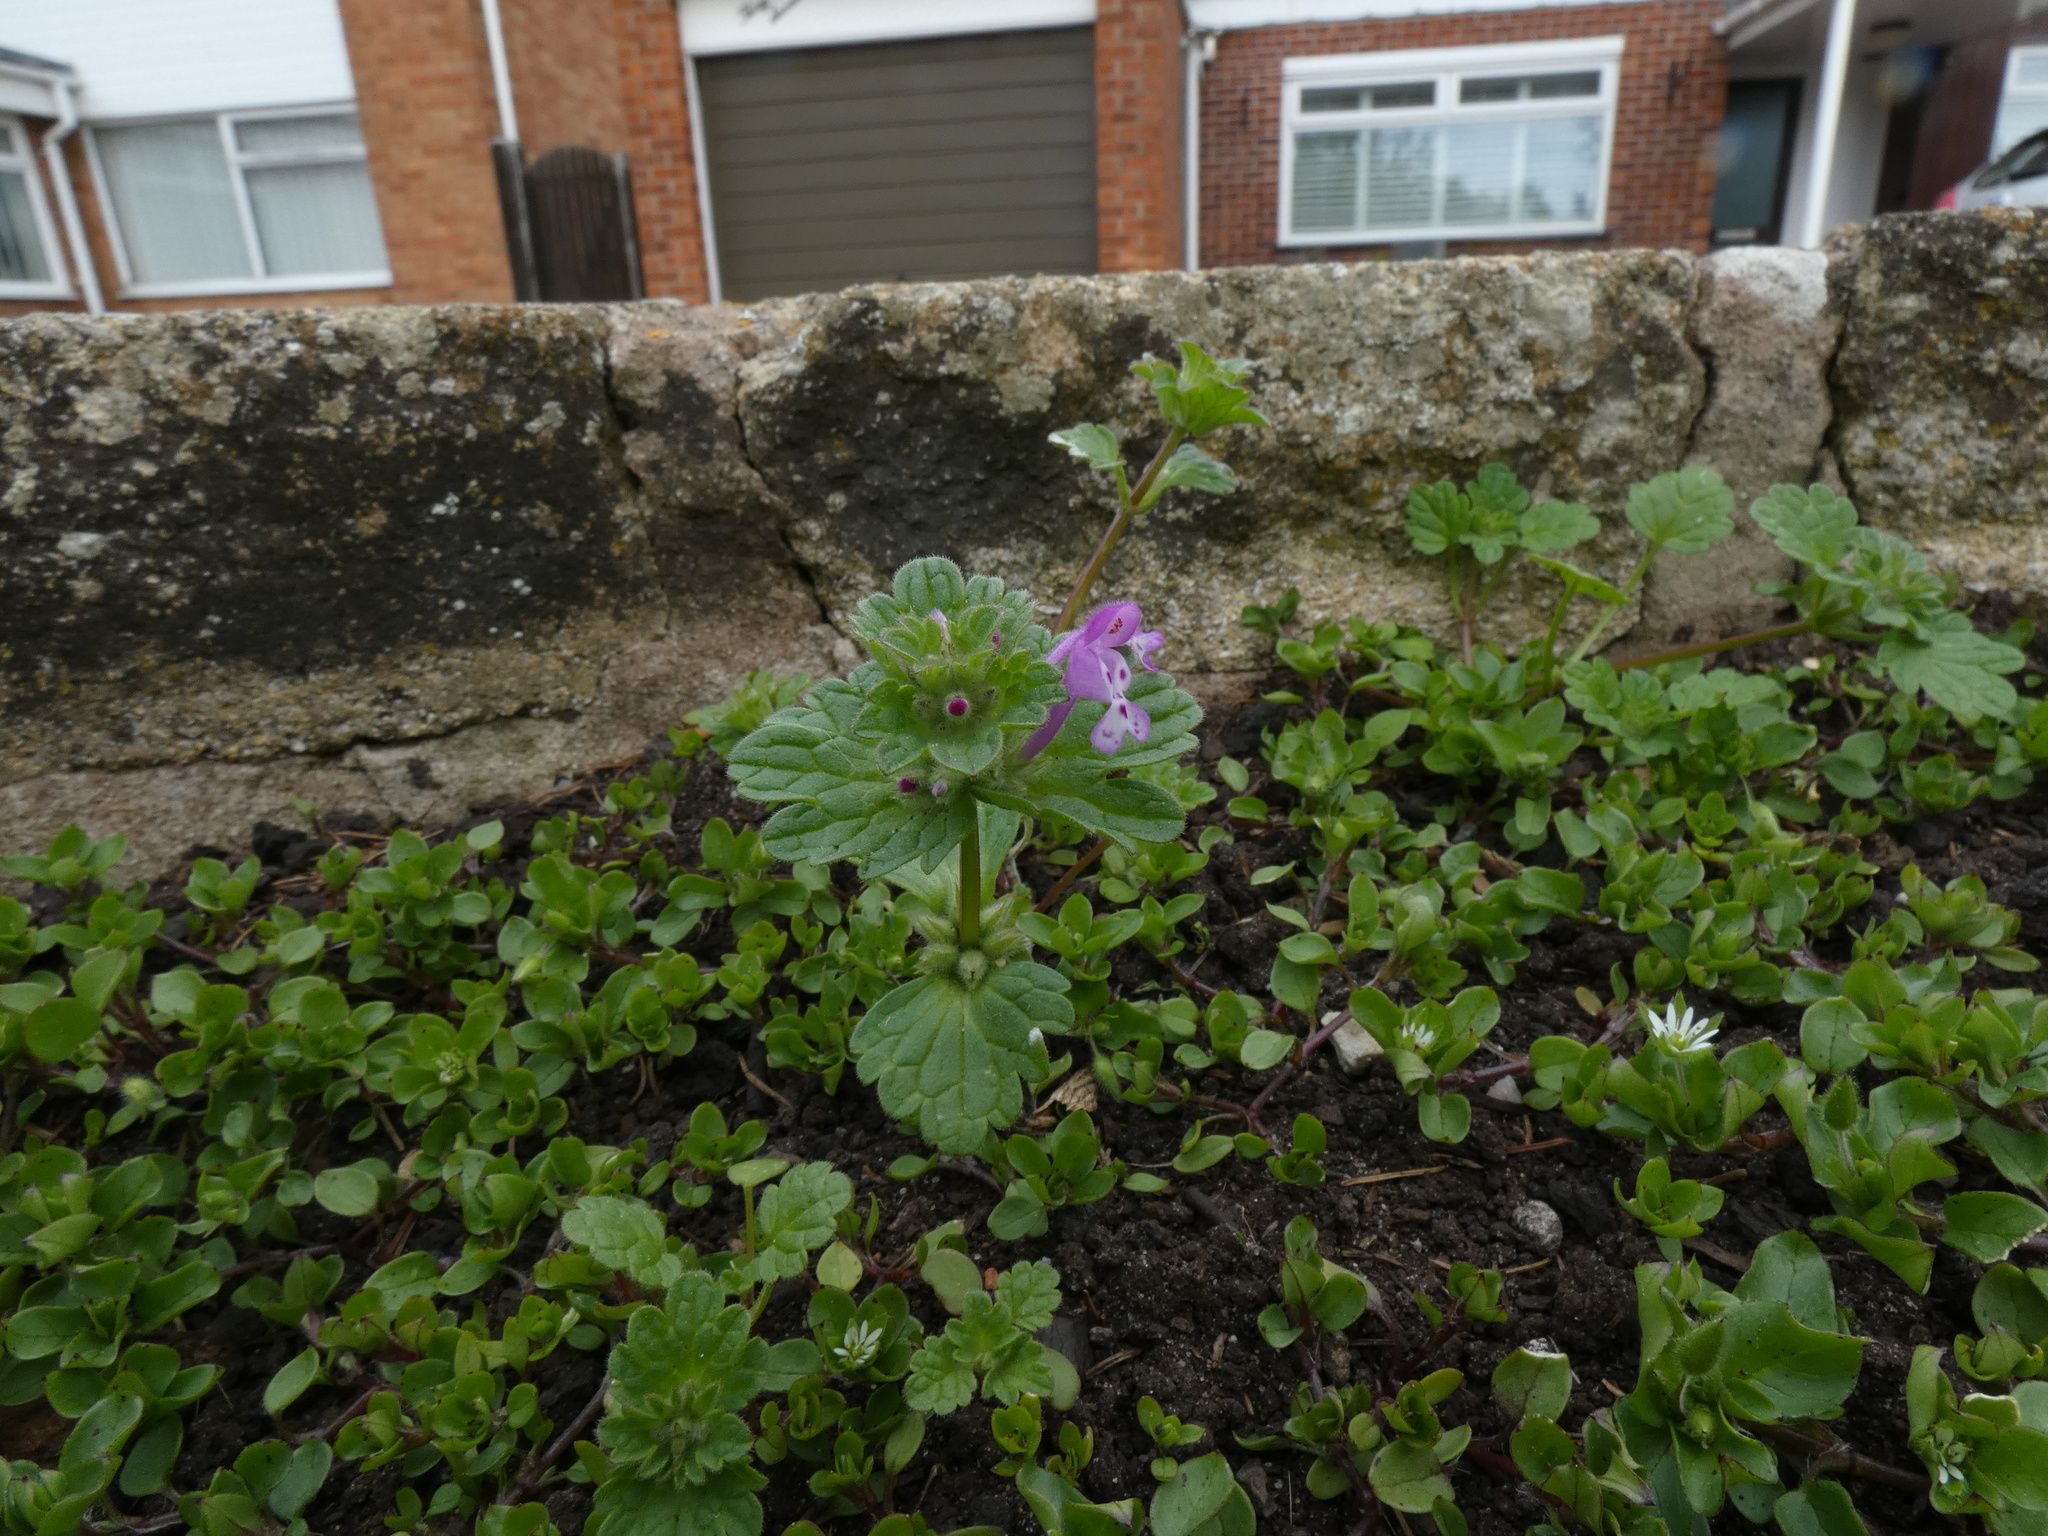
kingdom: Plantae
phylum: Tracheophyta
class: Magnoliopsida
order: Lamiales
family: Lamiaceae
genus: Lamium
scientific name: Lamium amplexicaule
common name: Henbit dead-nettle
